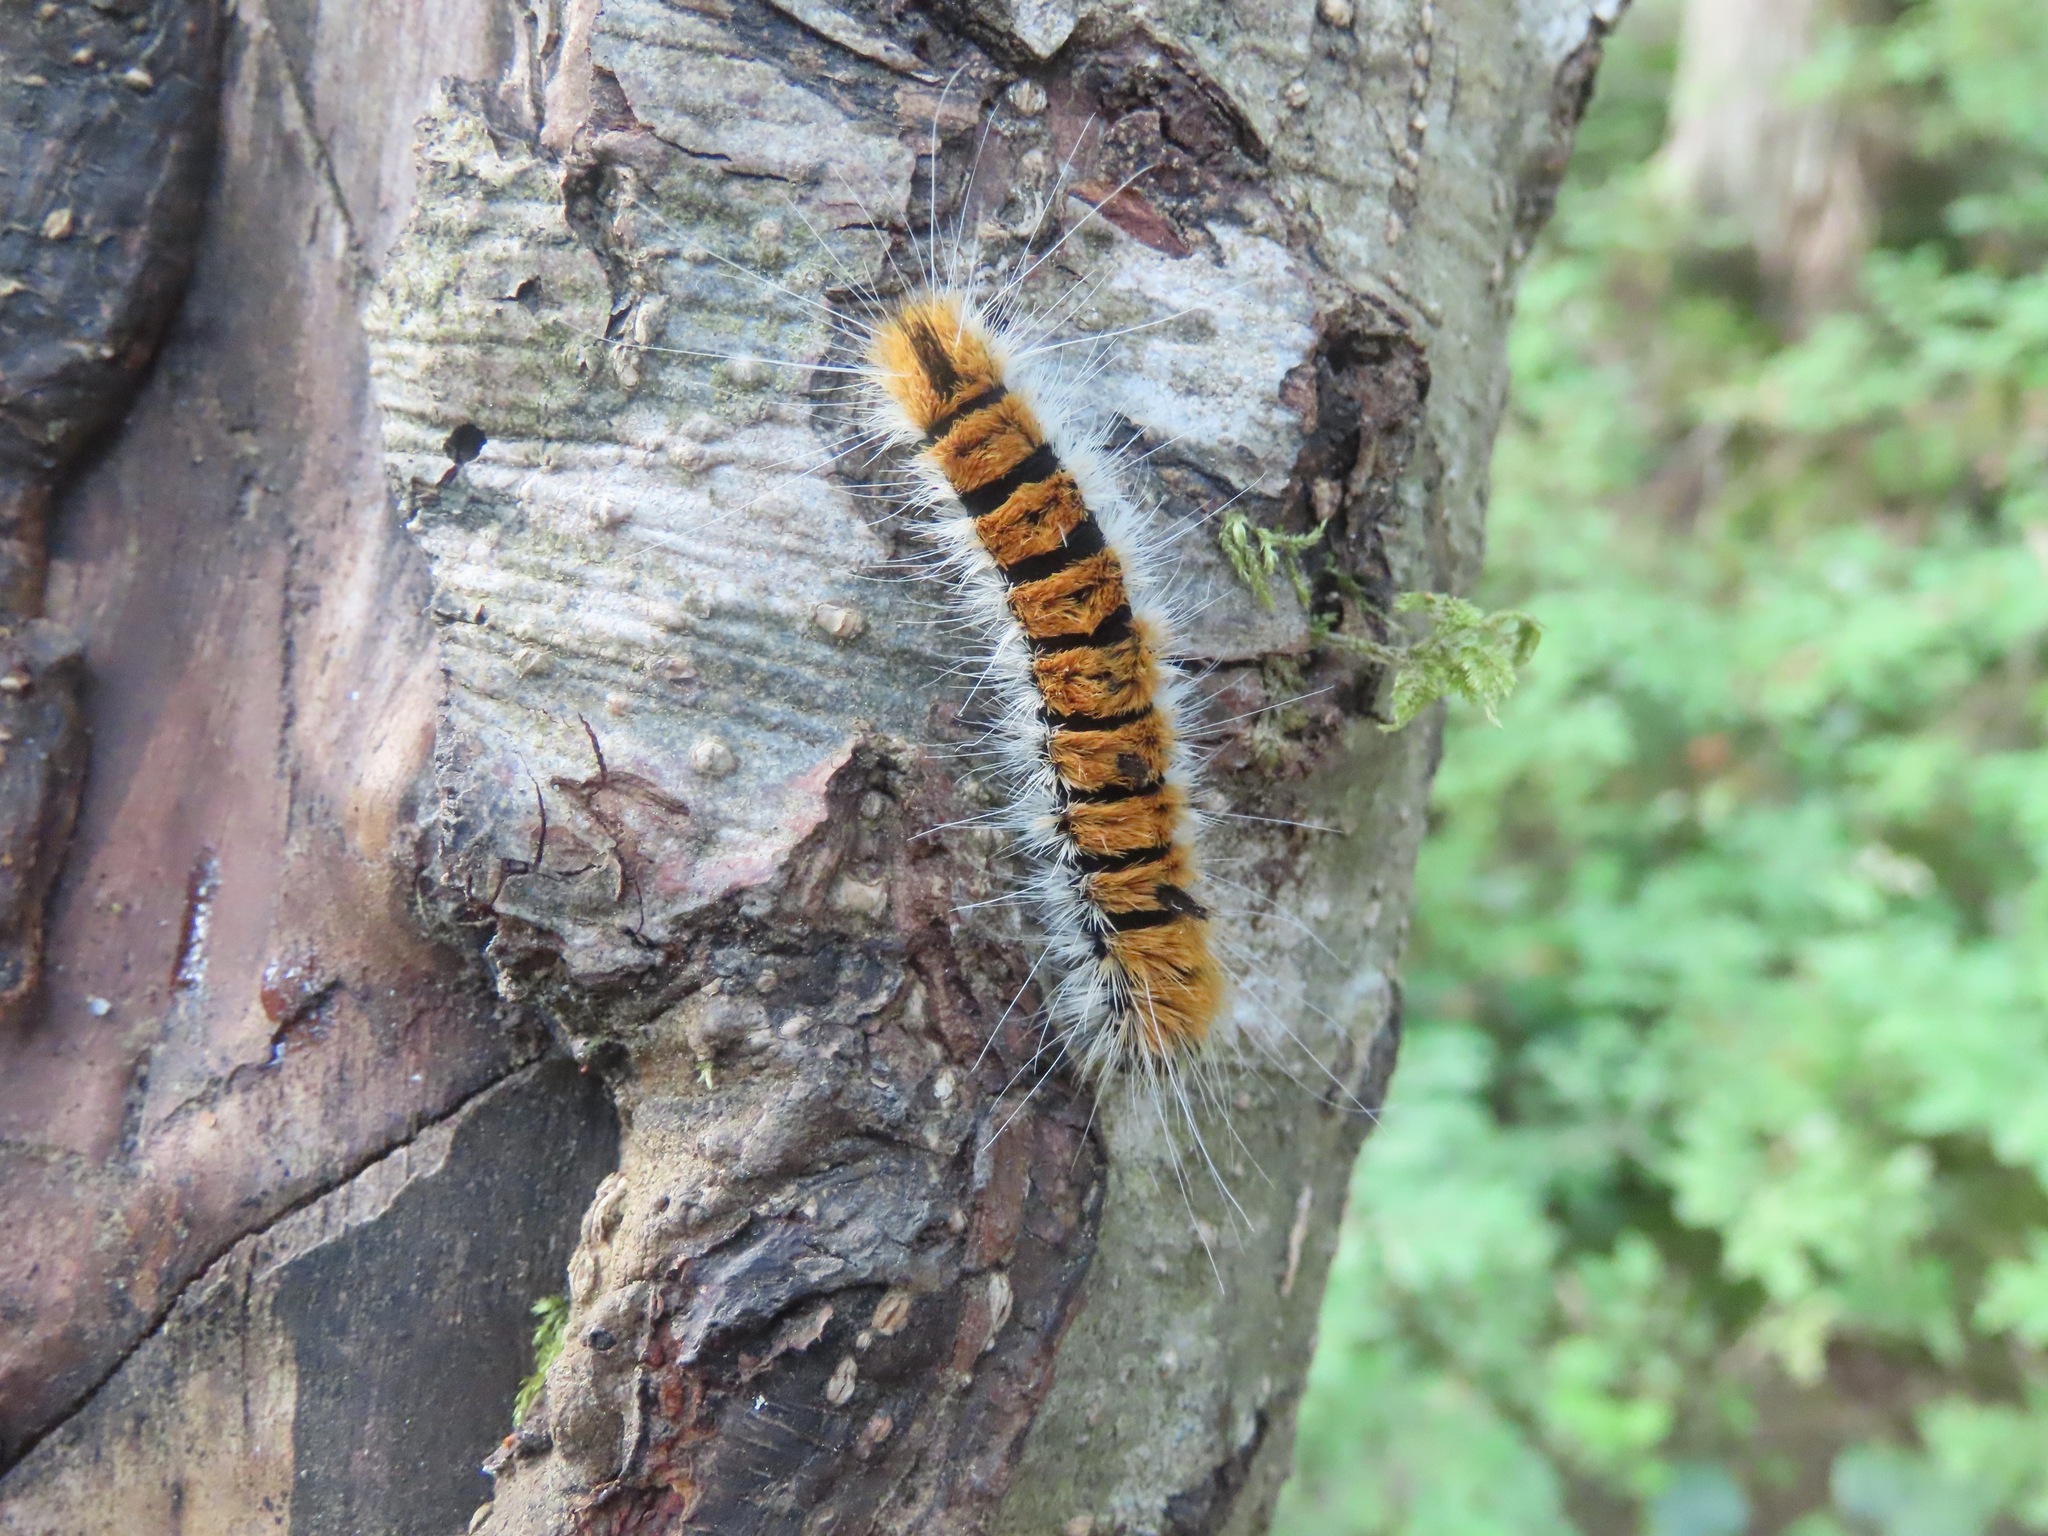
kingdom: Animalia
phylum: Arthropoda
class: Insecta
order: Lepidoptera
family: Noctuidae
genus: Acronicta
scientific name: Acronicta insita
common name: Large gray dagger
